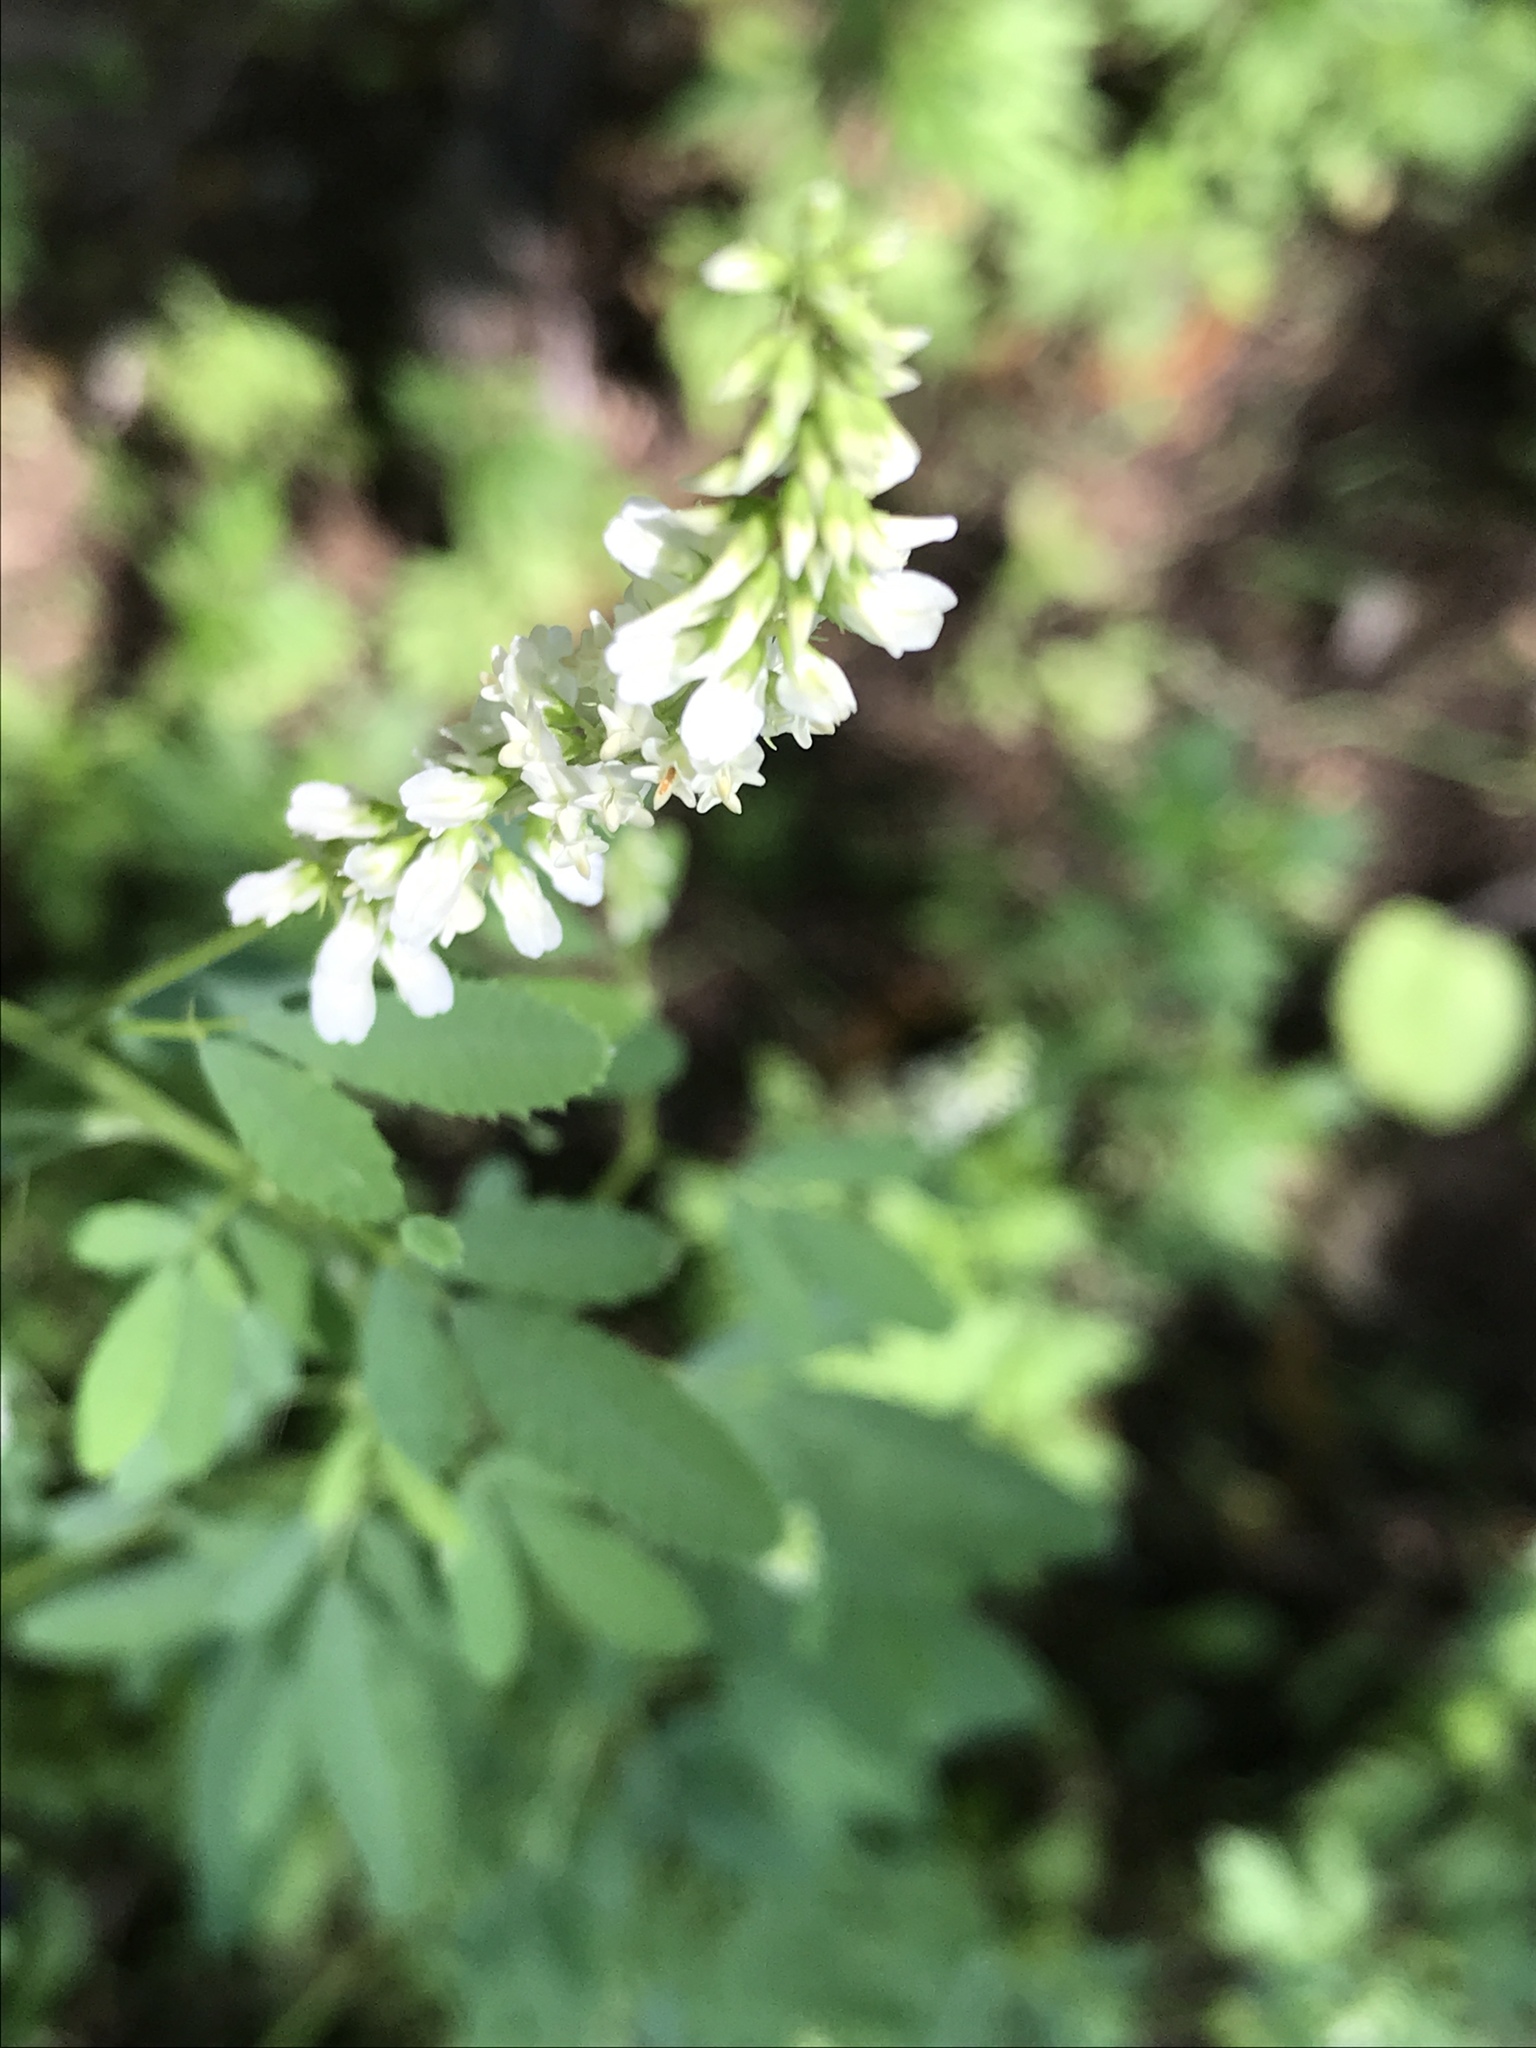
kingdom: Plantae
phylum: Tracheophyta
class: Magnoliopsida
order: Fabales
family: Fabaceae
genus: Melilotus
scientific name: Melilotus albus
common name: White melilot
